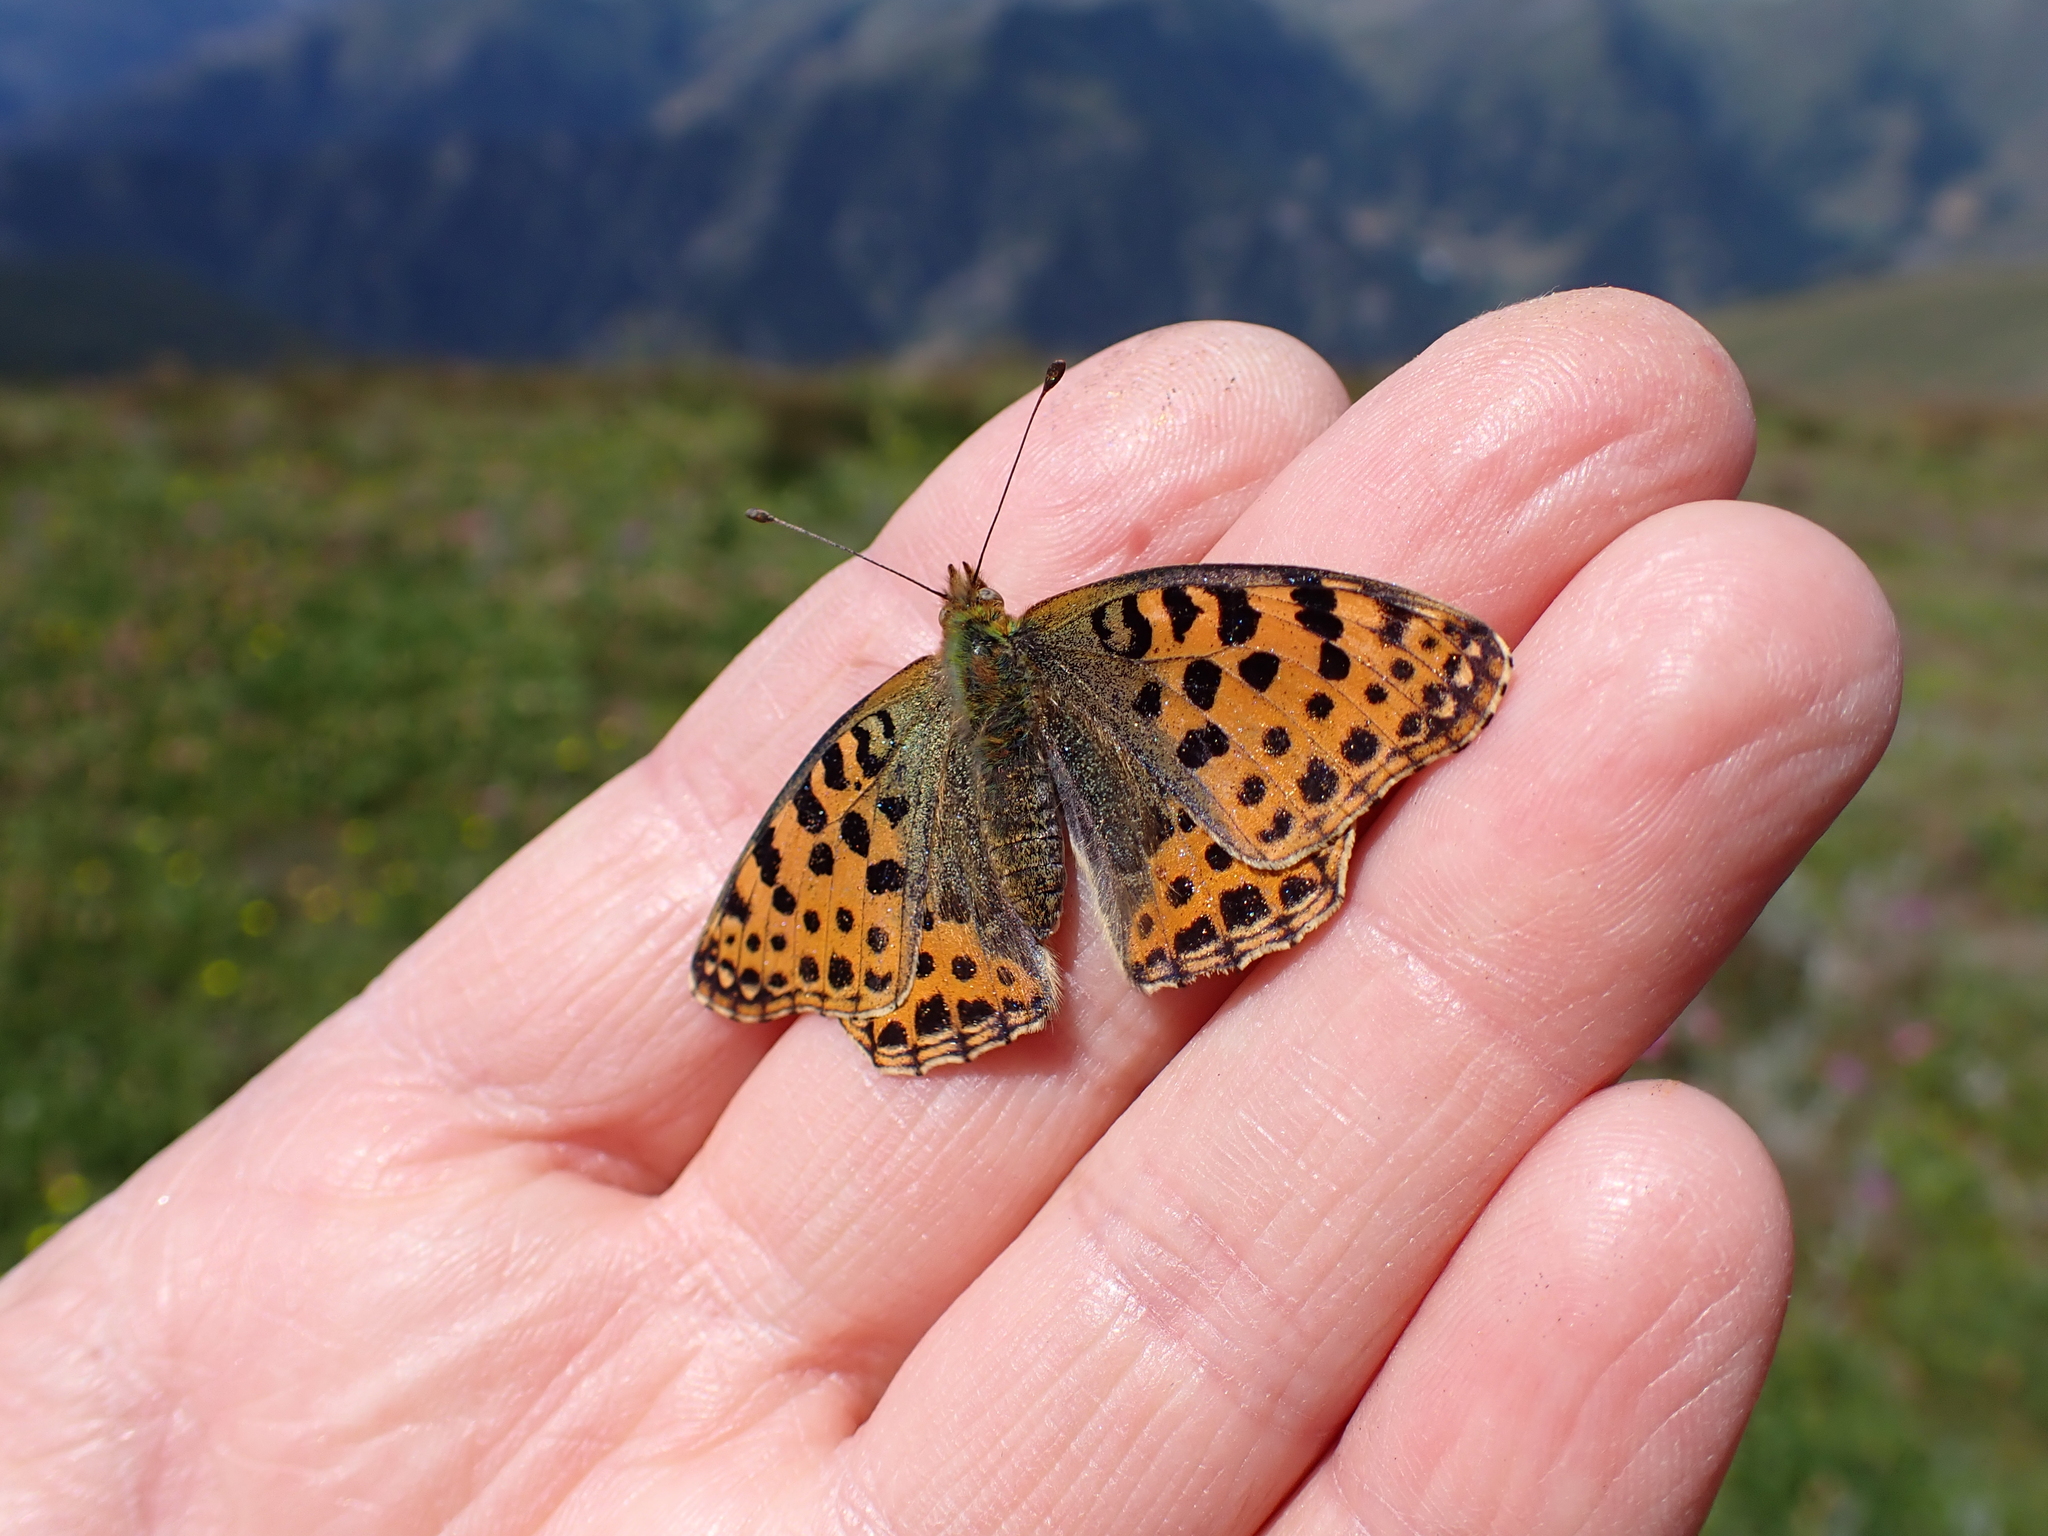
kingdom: Animalia
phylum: Arthropoda
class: Insecta
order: Lepidoptera
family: Nymphalidae
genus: Issoria
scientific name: Issoria lathonia
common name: Queen of spain fritillary
